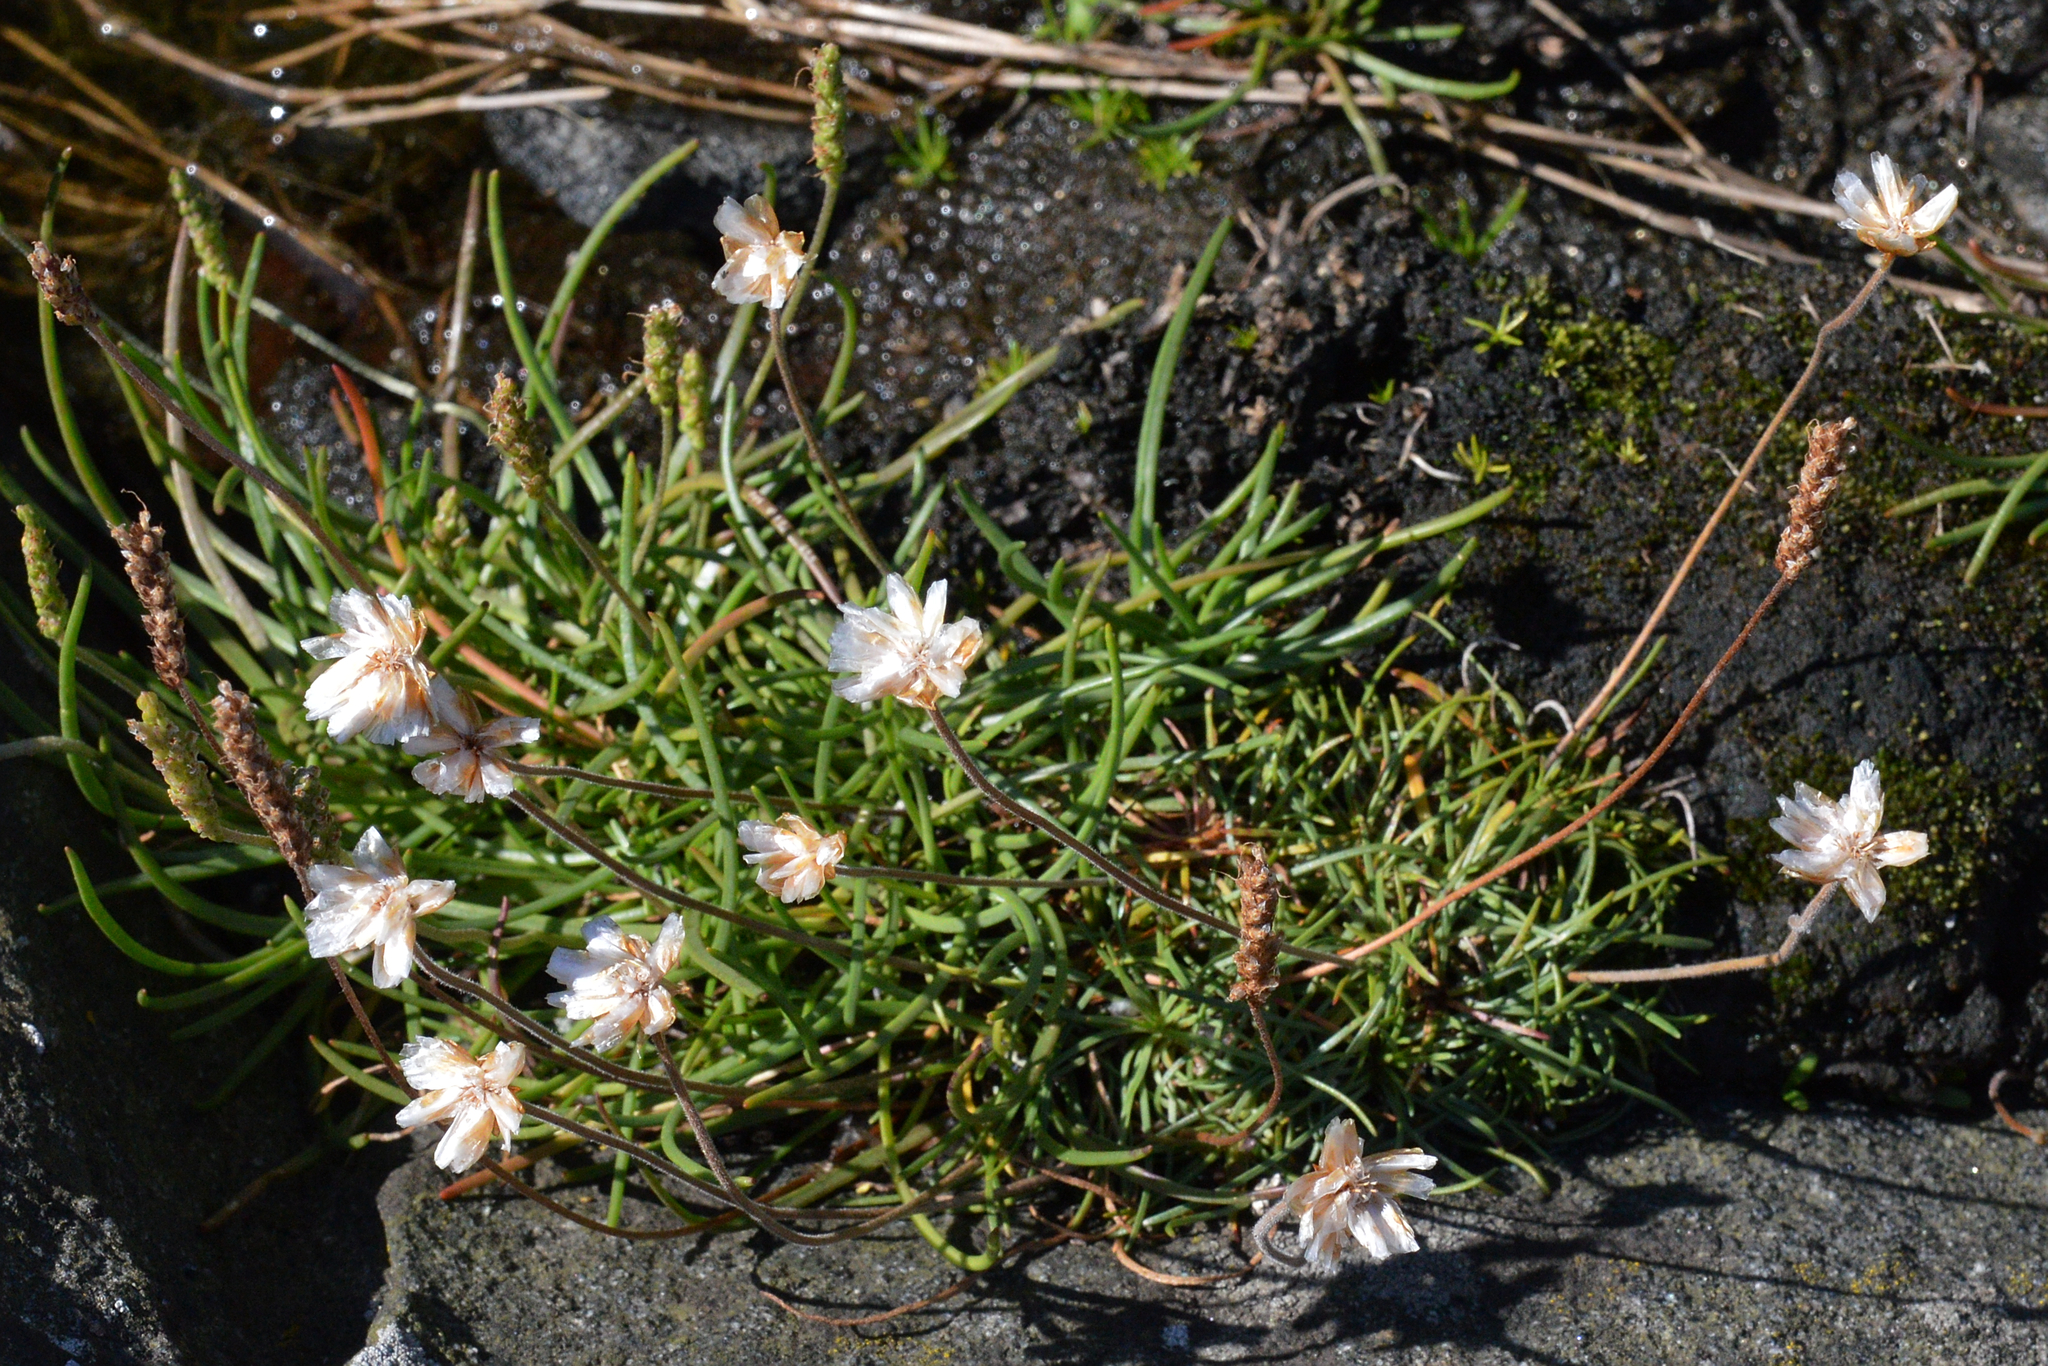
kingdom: Plantae
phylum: Tracheophyta
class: Magnoliopsida
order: Caryophyllales
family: Plumbaginaceae
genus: Armeria
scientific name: Armeria maritima
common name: Thrift
